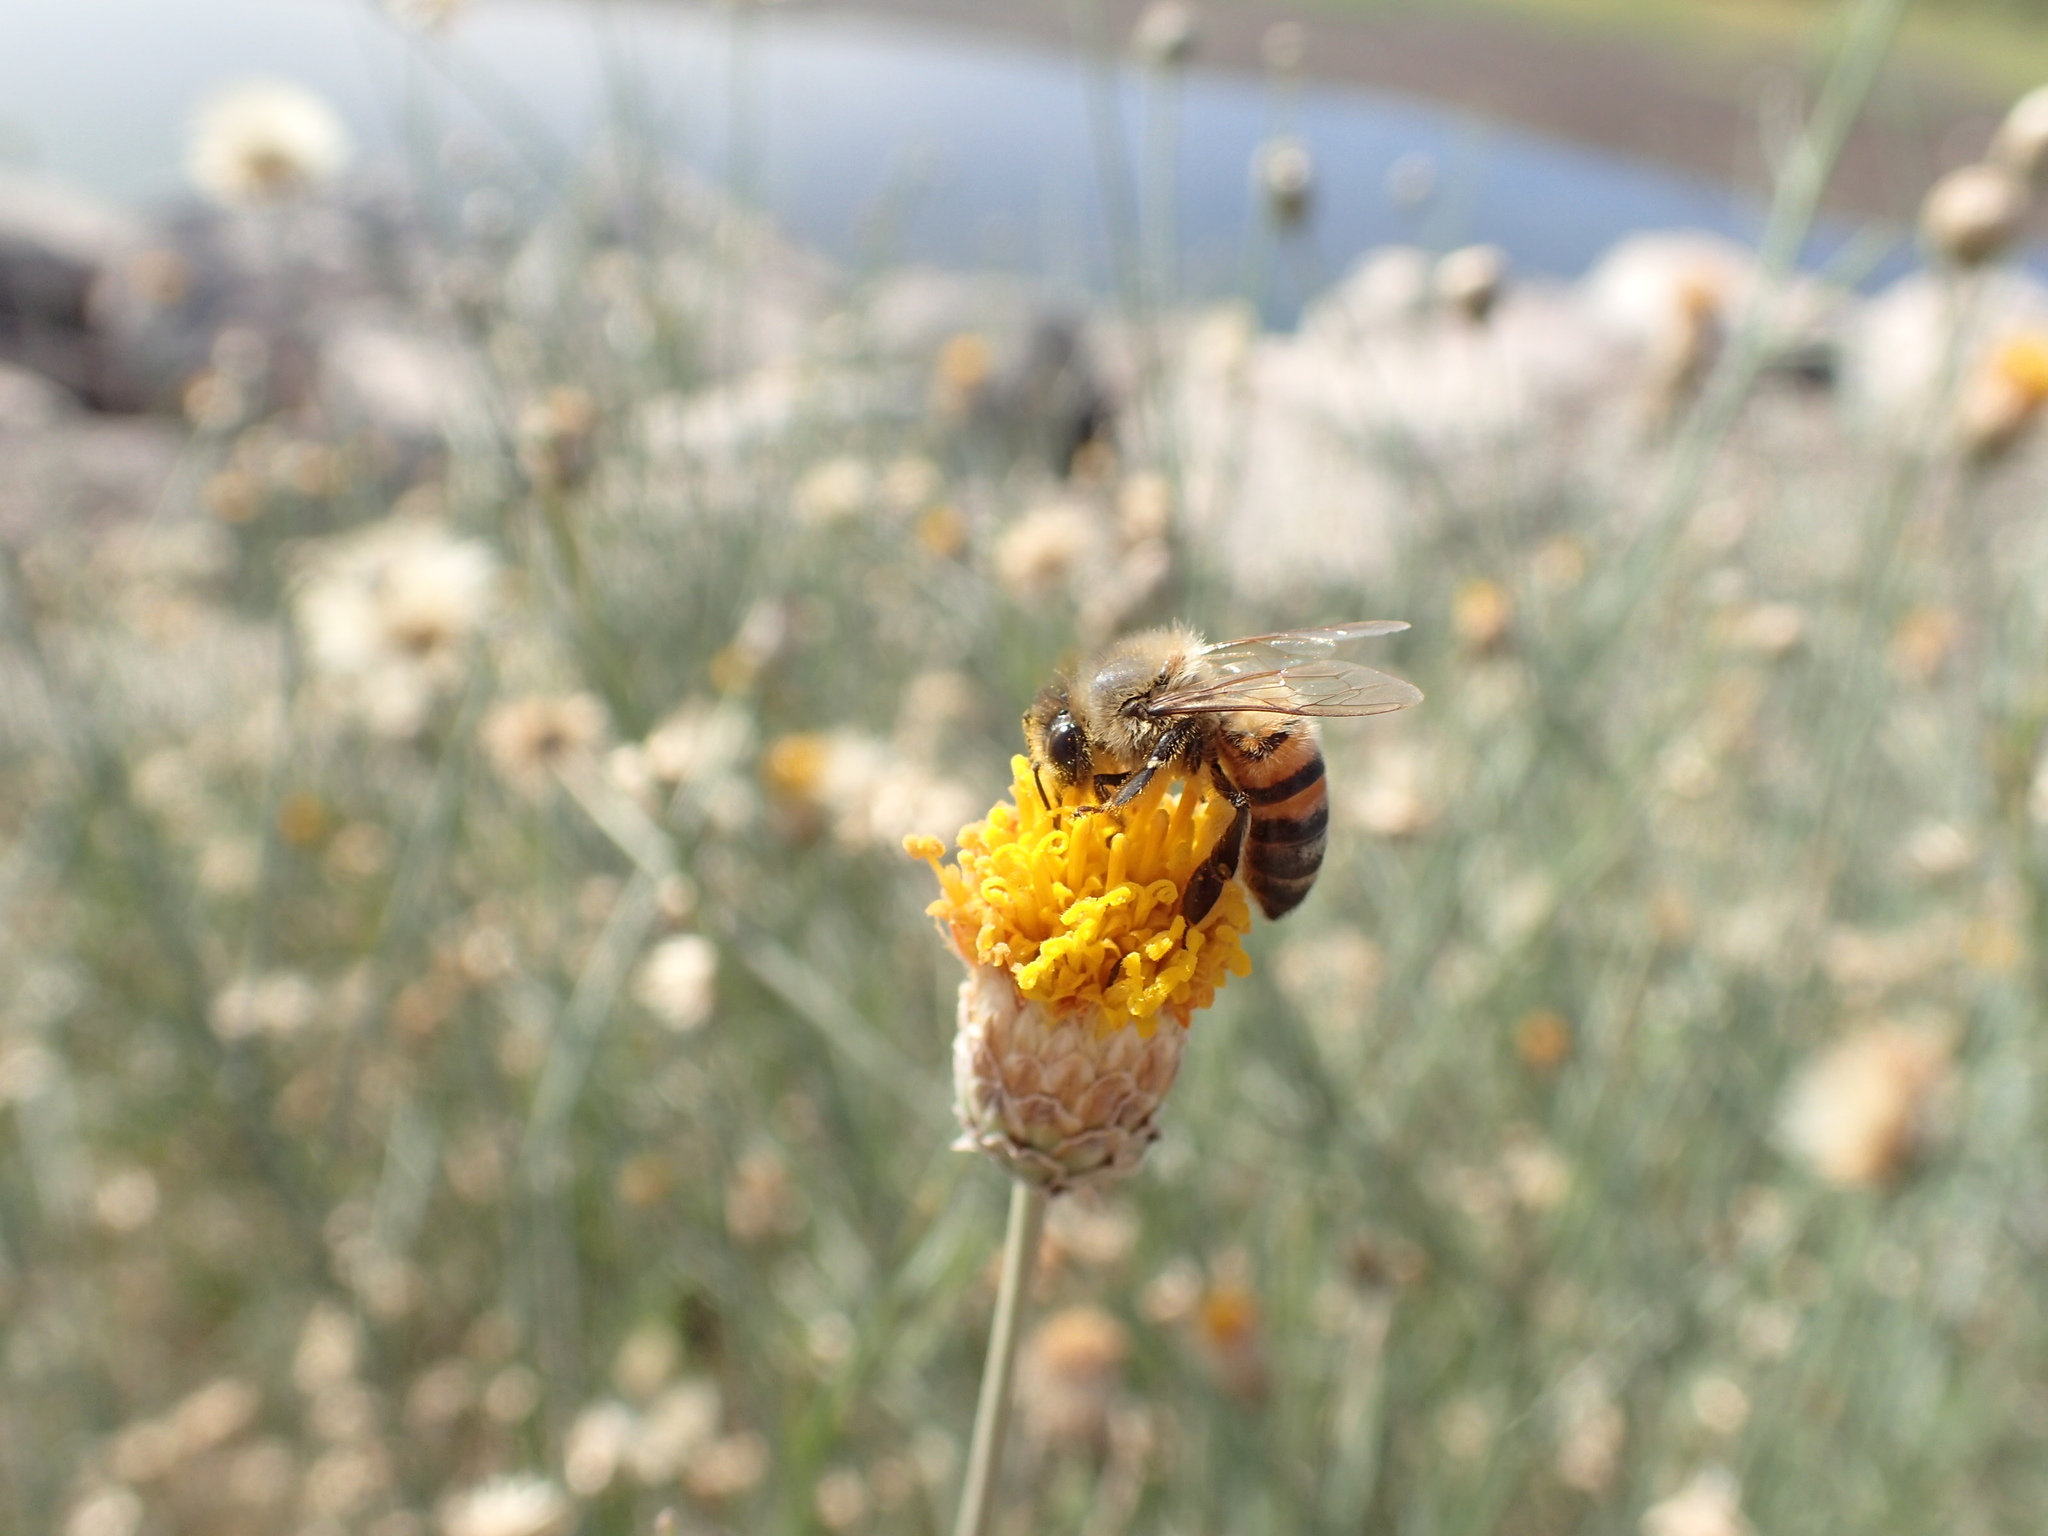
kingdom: Animalia
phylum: Arthropoda
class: Insecta
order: Hymenoptera
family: Apidae
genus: Apis
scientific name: Apis mellifera
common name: Honey bee
